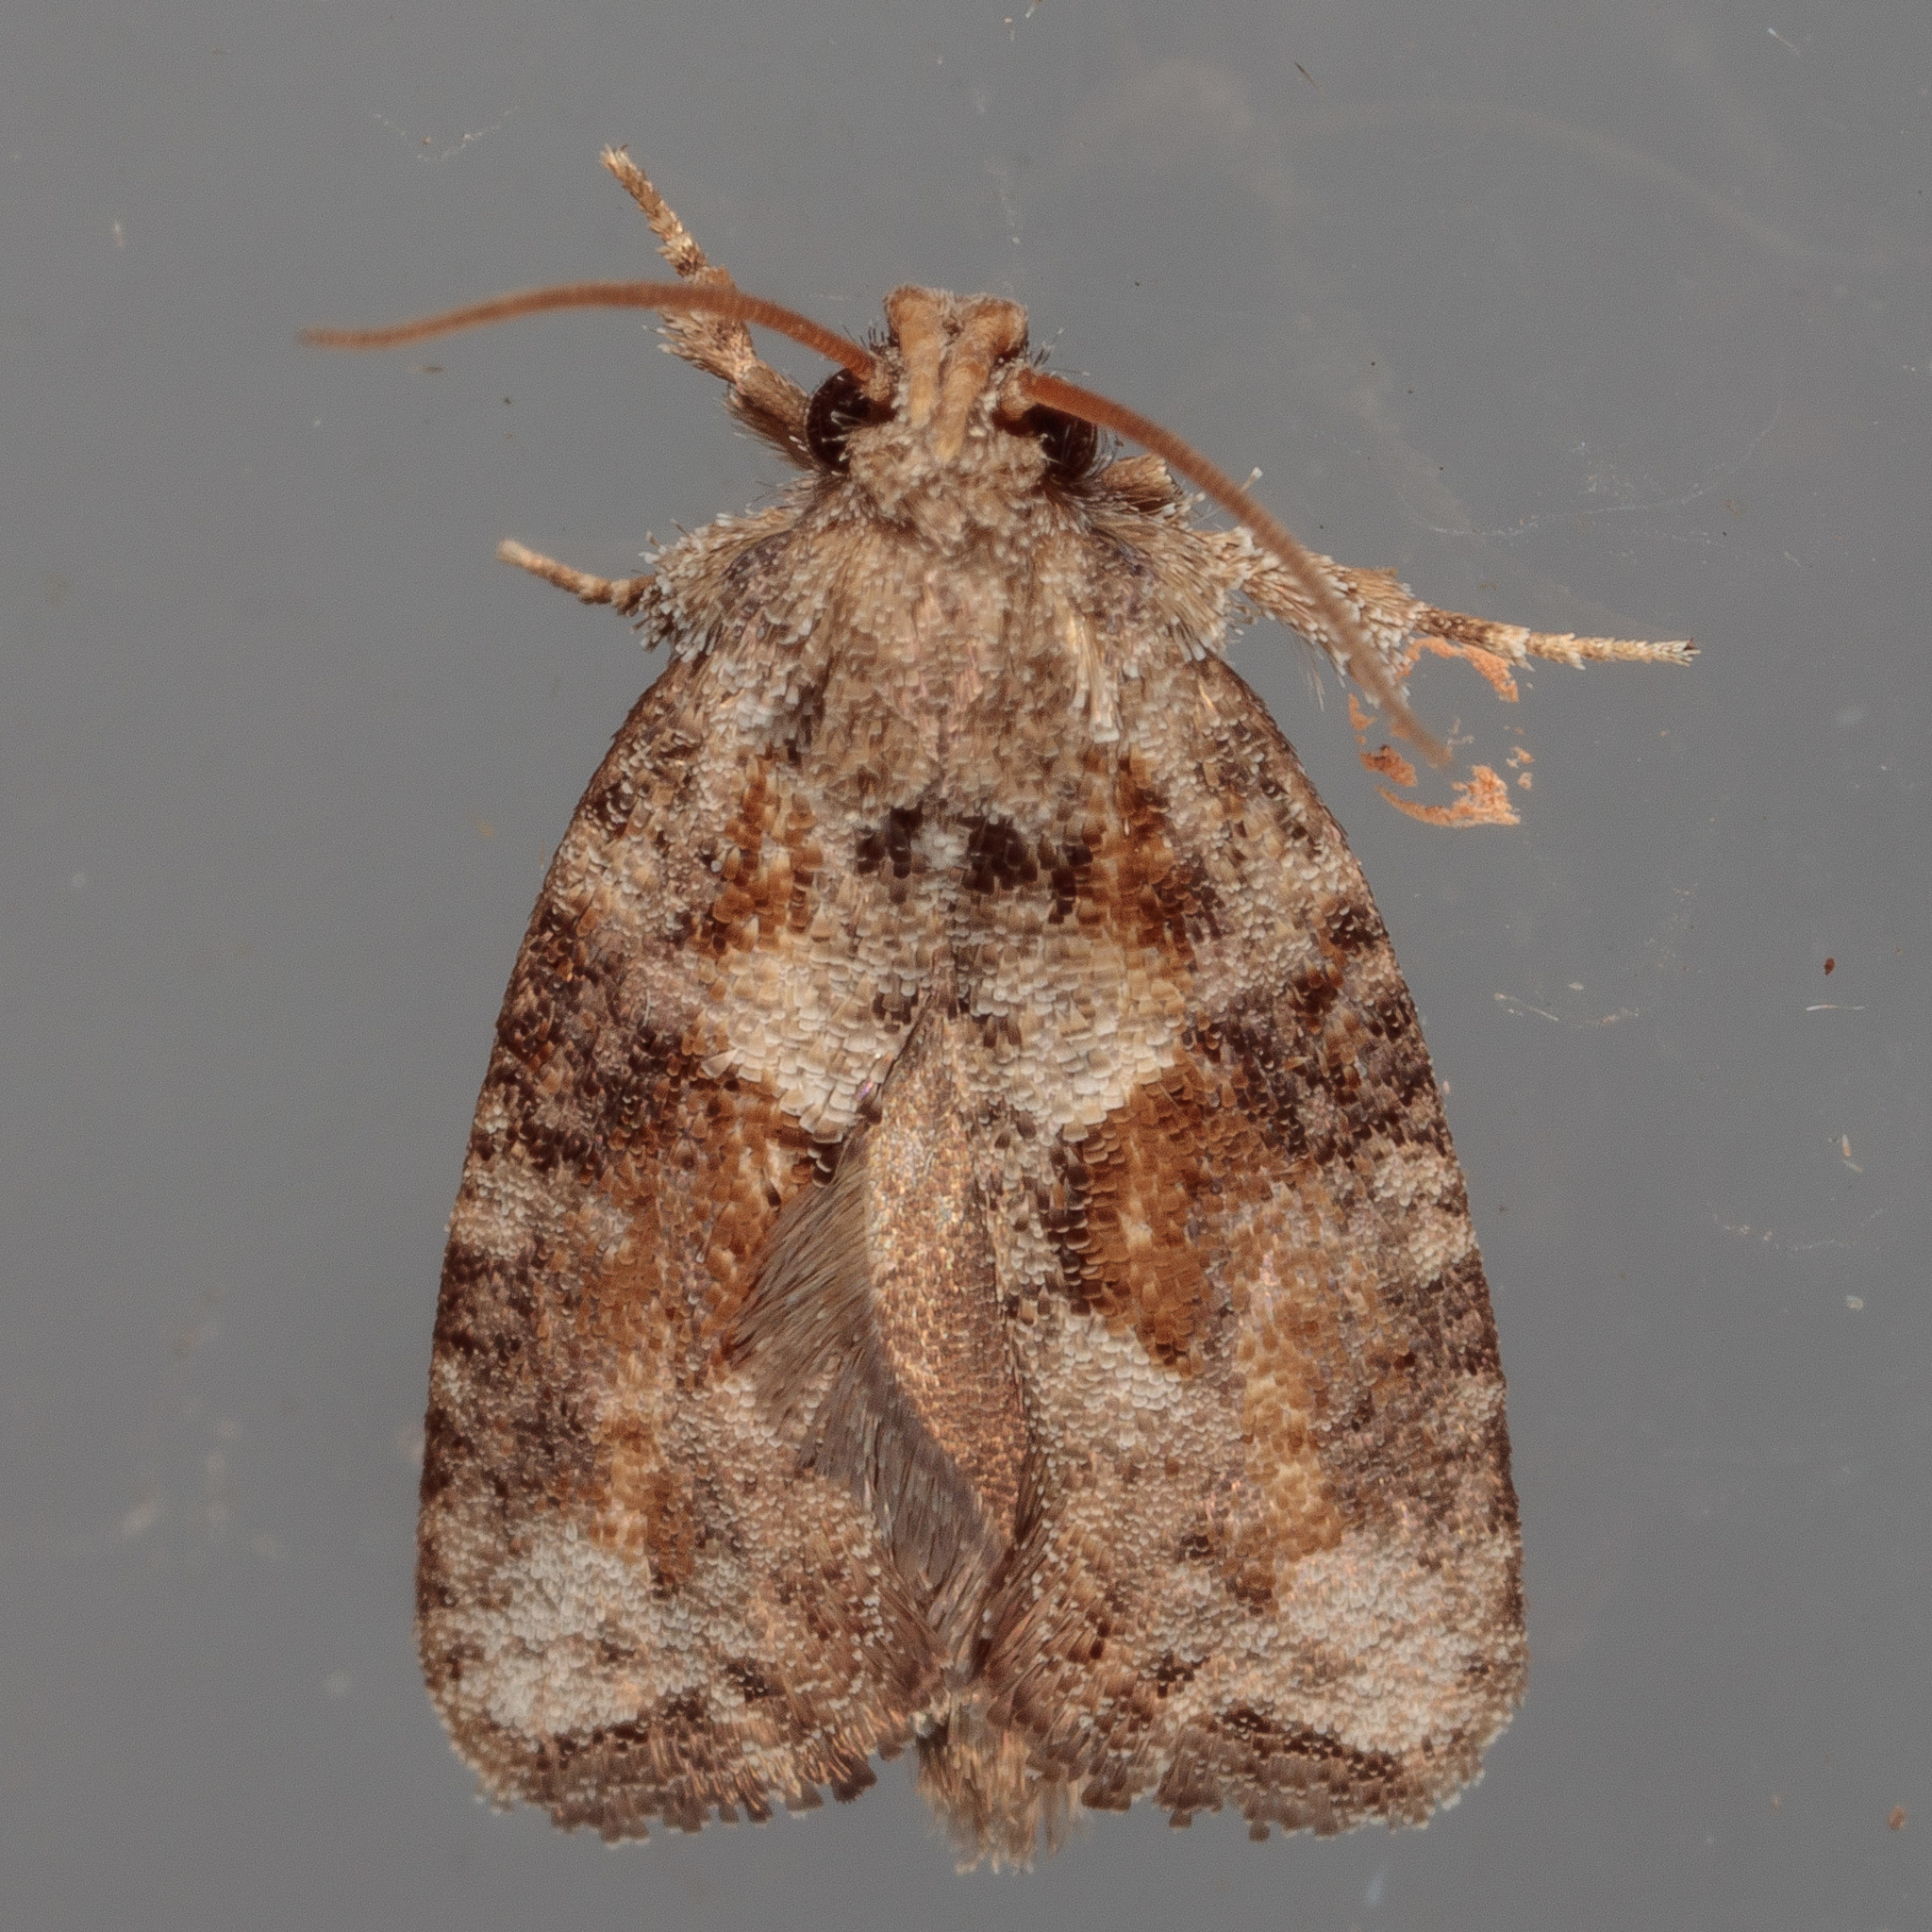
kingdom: Animalia
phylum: Arthropoda
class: Insecta
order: Lepidoptera
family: Tineidae
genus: Acrolophus
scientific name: Acrolophus piger
